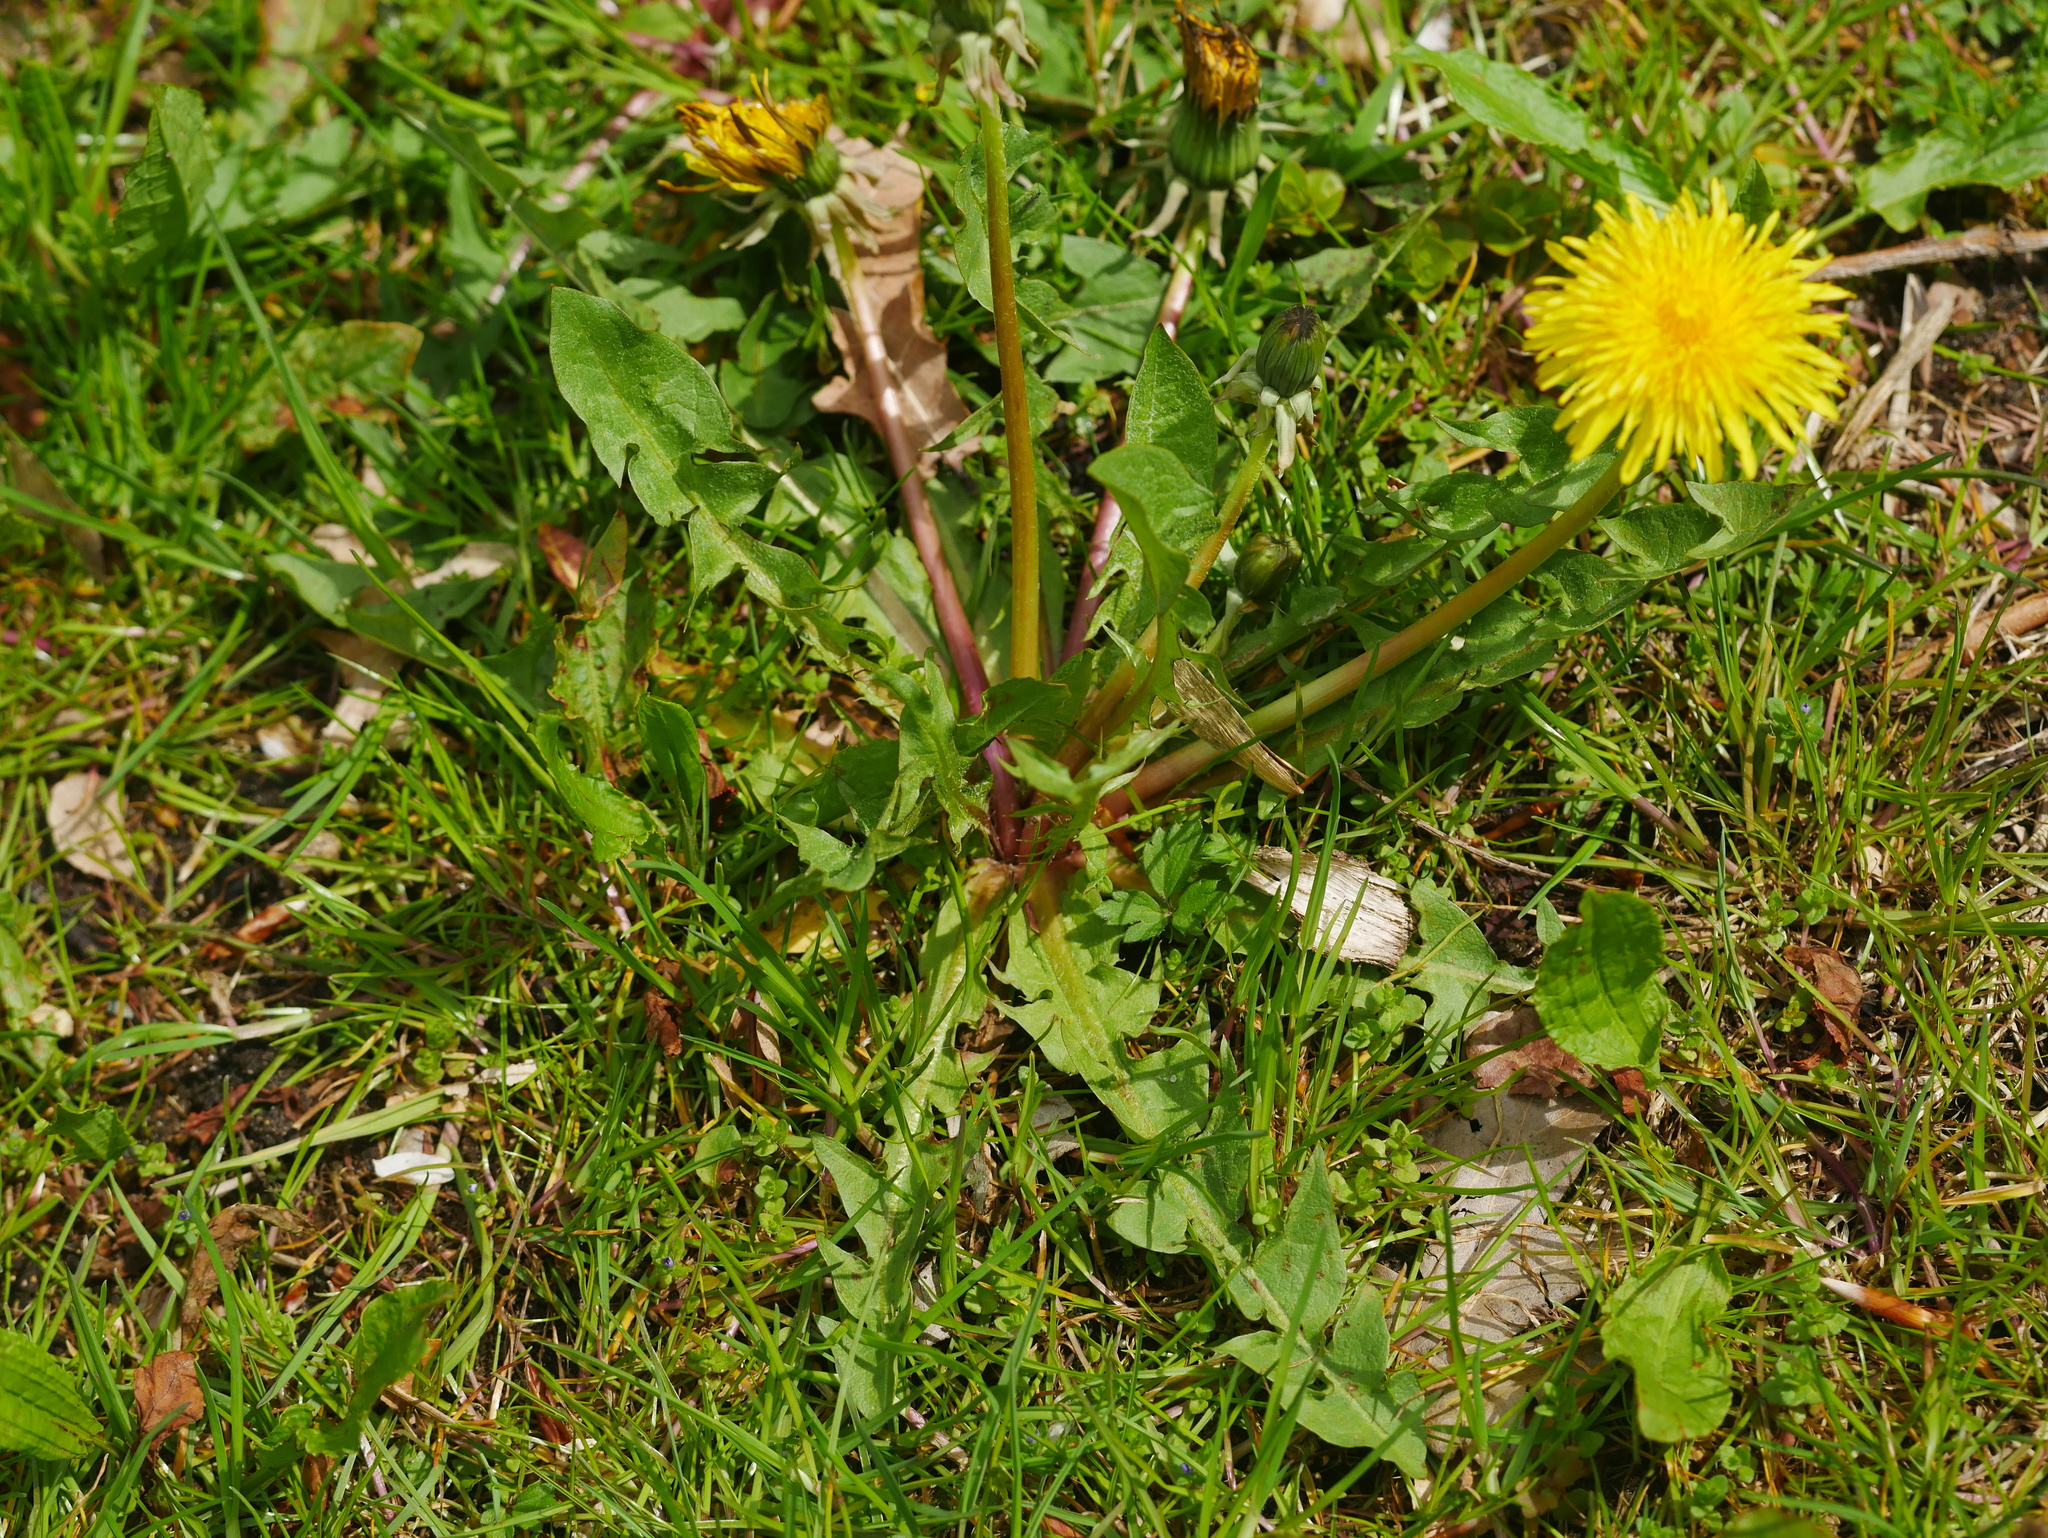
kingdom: Plantae
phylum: Tracheophyta
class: Magnoliopsida
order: Asterales
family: Asteraceae
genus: Taraxacum
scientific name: Taraxacum officinale
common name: Common dandelion
